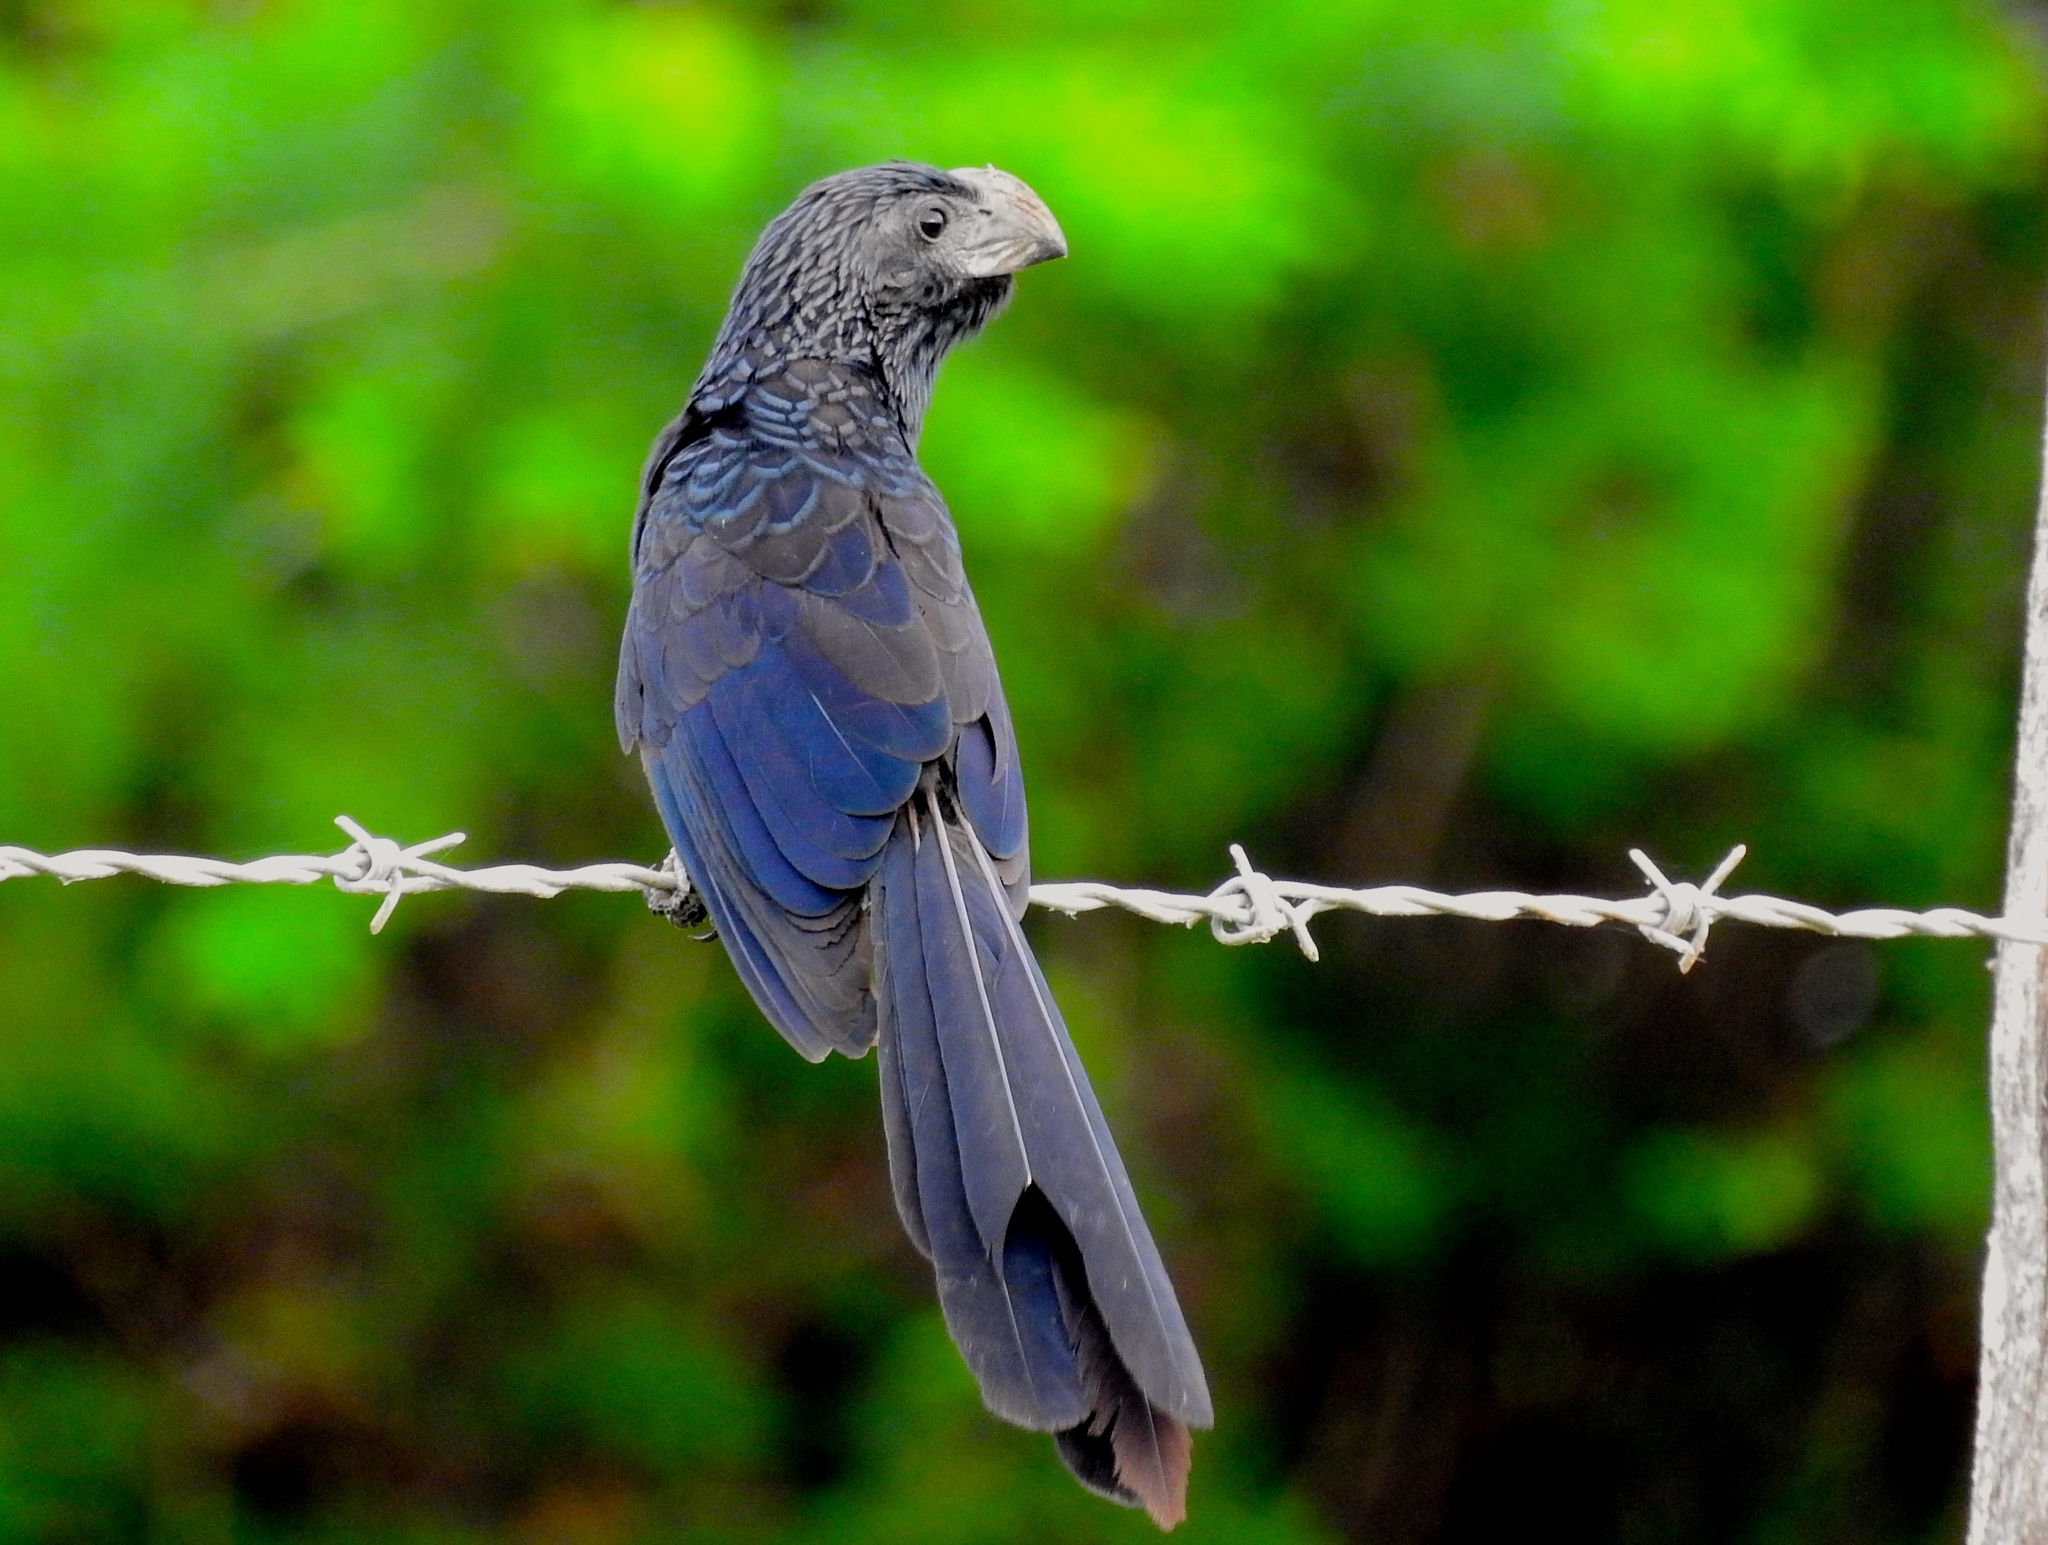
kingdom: Animalia
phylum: Chordata
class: Aves
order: Cuculiformes
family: Cuculidae
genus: Crotophaga
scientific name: Crotophaga sulcirostris
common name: Groove-billed ani
